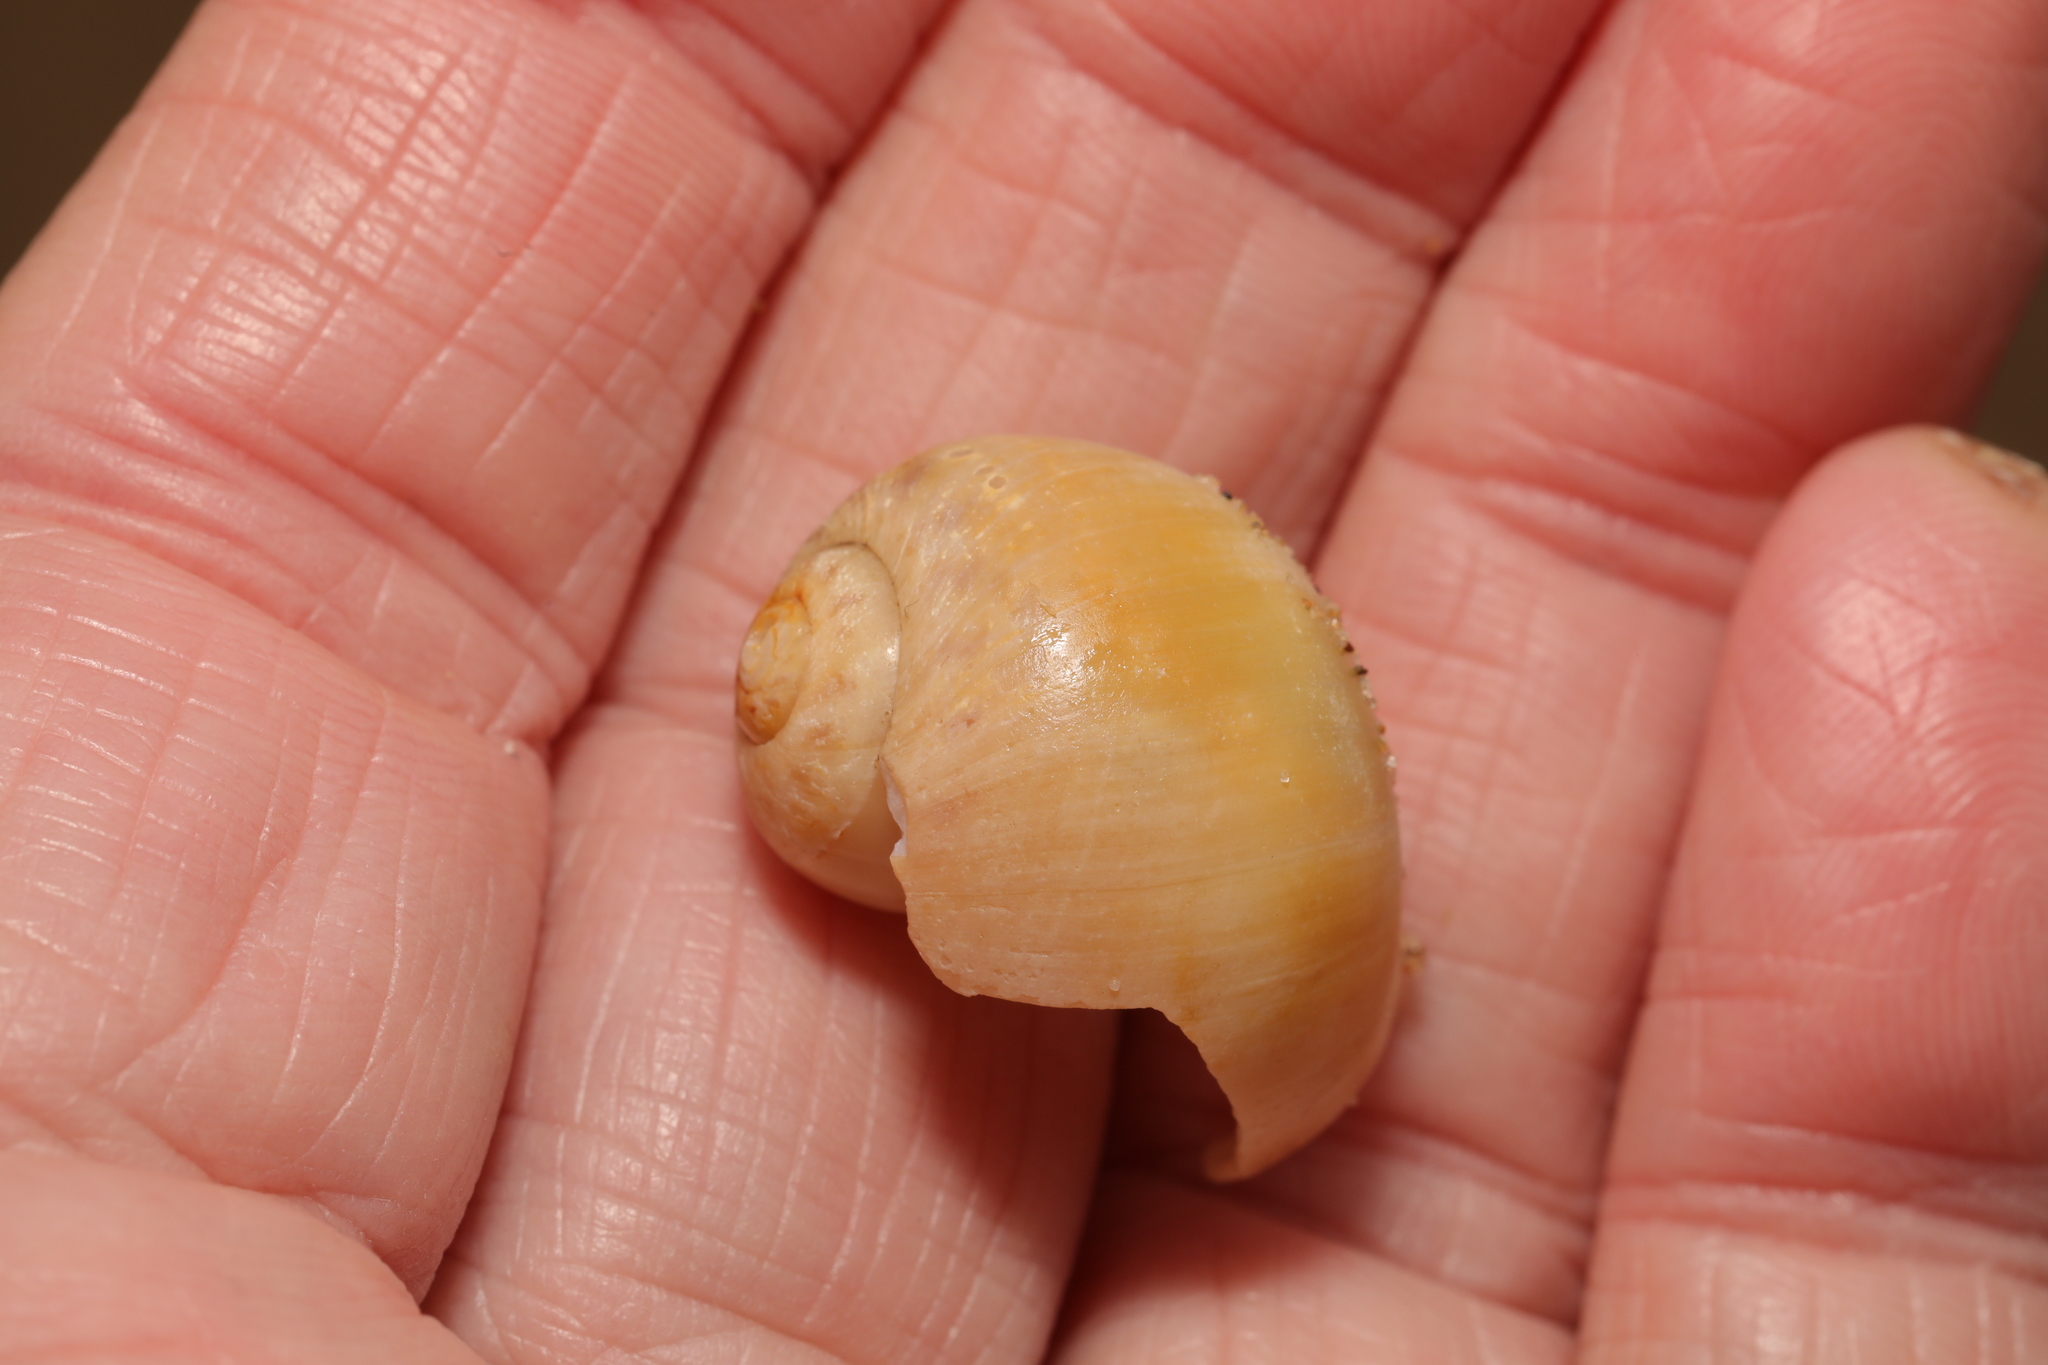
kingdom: Animalia
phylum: Mollusca
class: Gastropoda
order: Littorinimorpha
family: Naticidae
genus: Euspira
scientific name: Euspira catena
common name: Necklace shell
